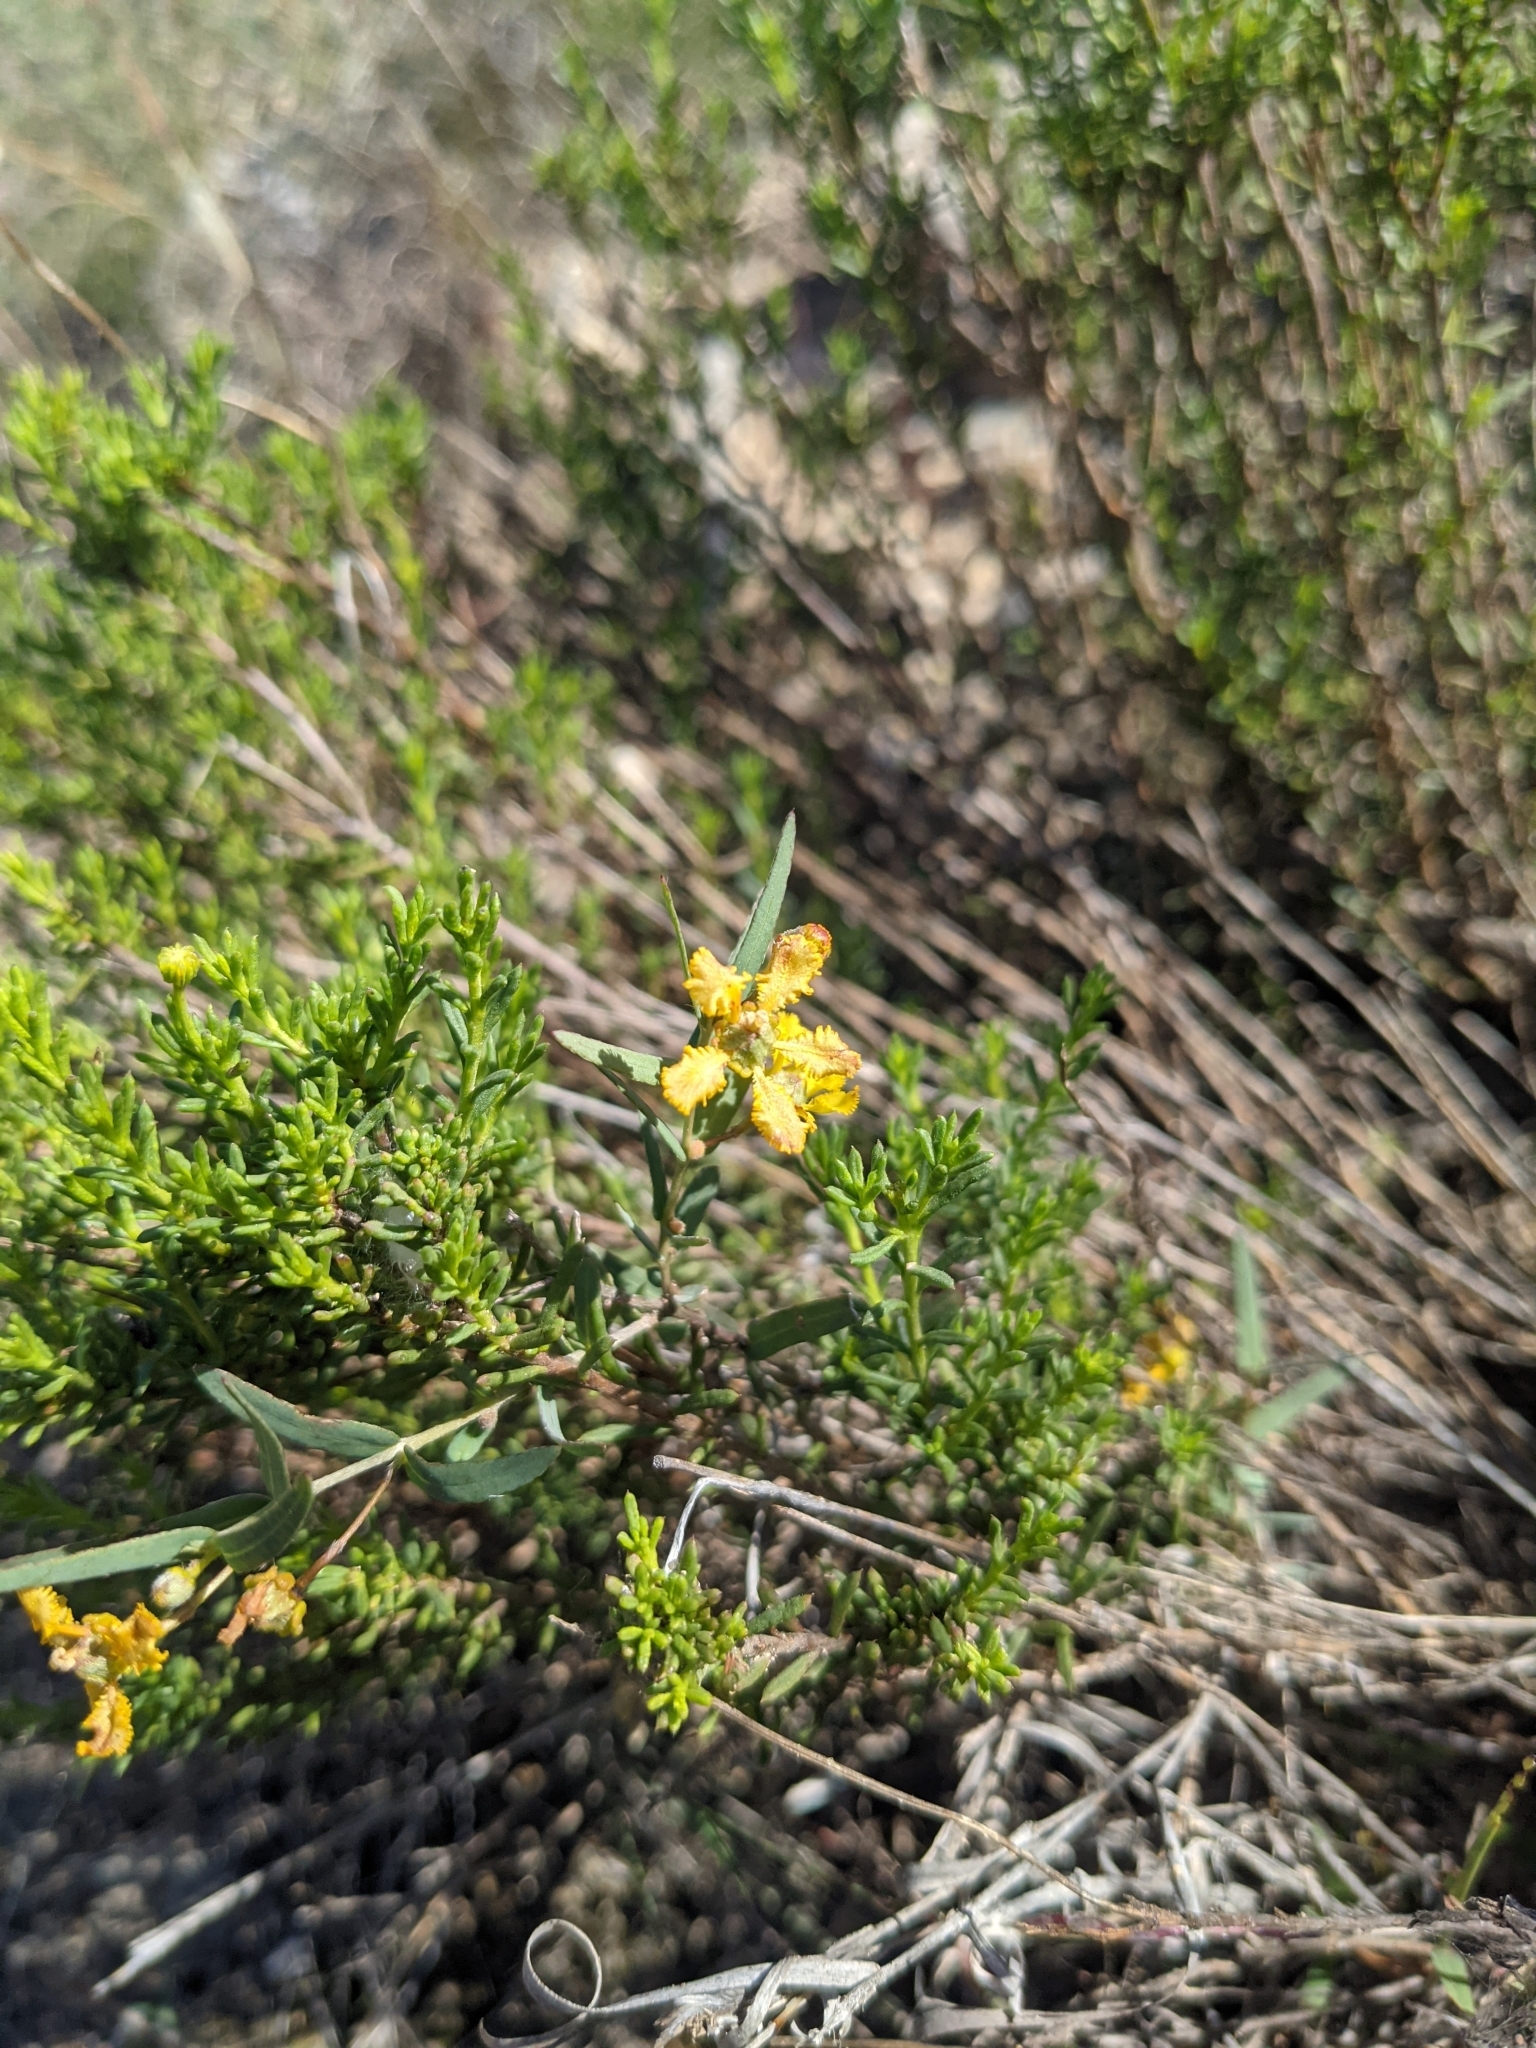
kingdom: Plantae
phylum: Tracheophyta
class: Magnoliopsida
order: Malpighiales
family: Malpighiaceae
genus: Aspicarpa
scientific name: Aspicarpa hyssopifolia
